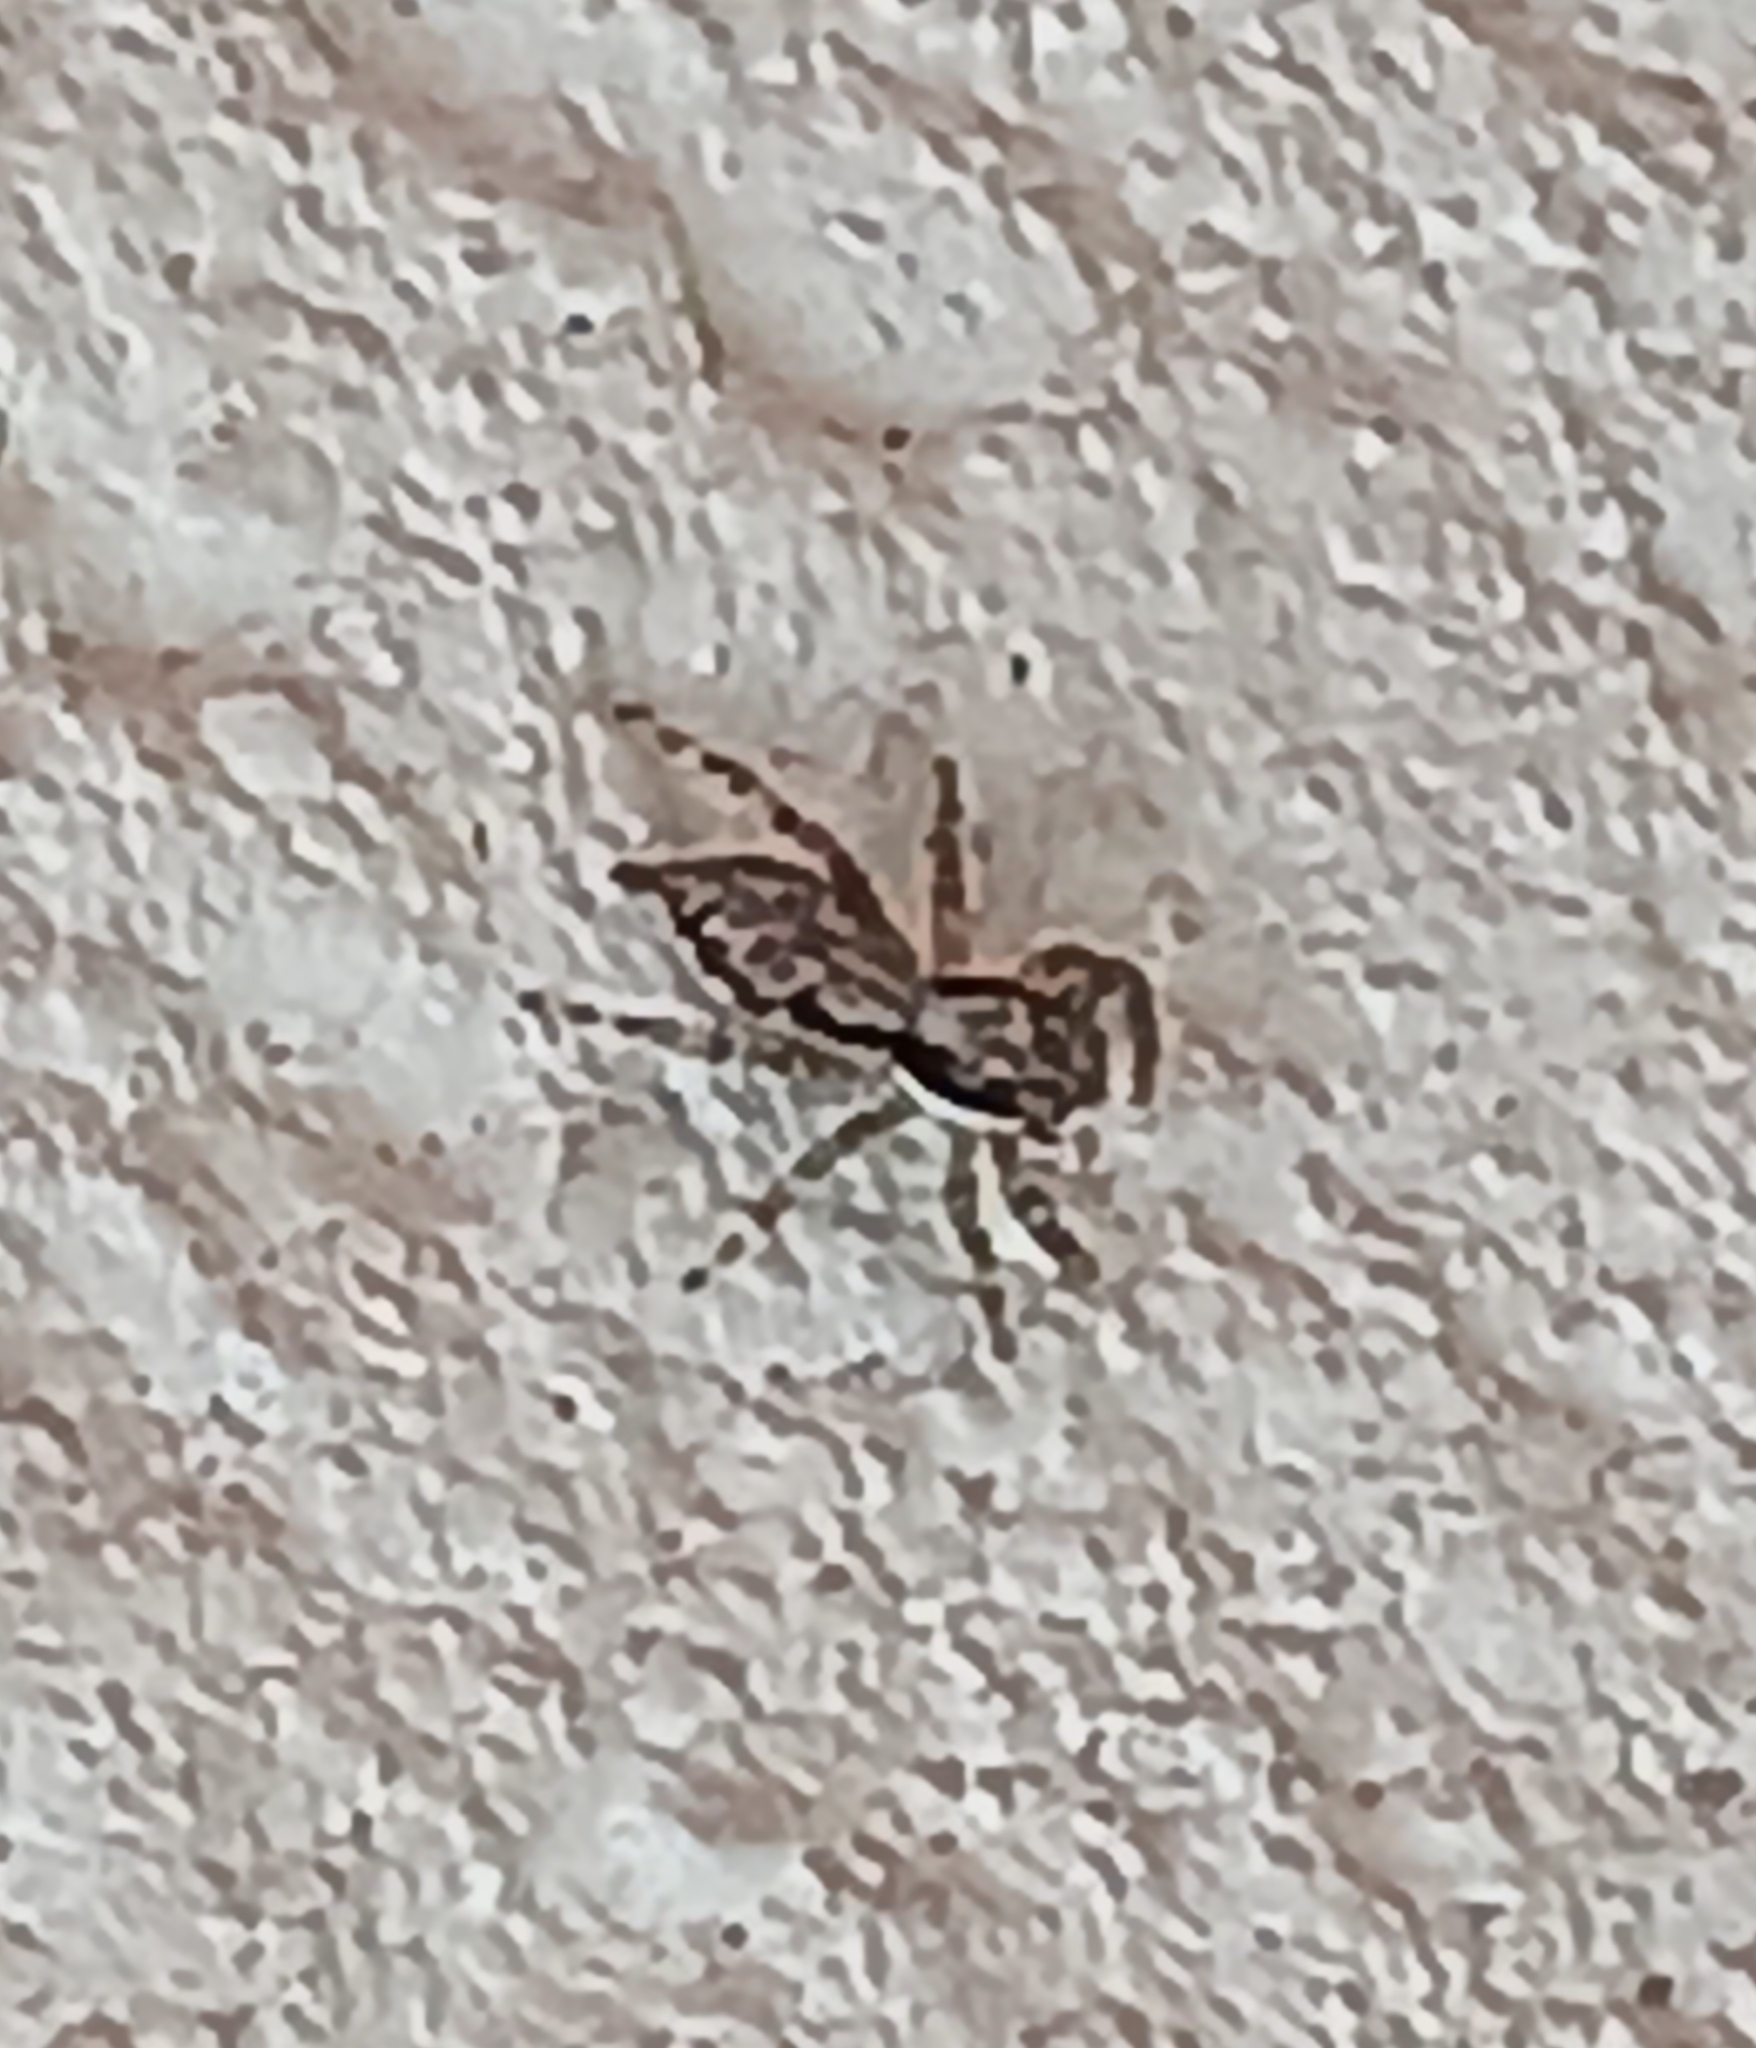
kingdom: Animalia
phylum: Arthropoda
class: Arachnida
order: Araneae
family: Salticidae
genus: Menemerus
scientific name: Menemerus bivittatus
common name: Gray wall jumper
